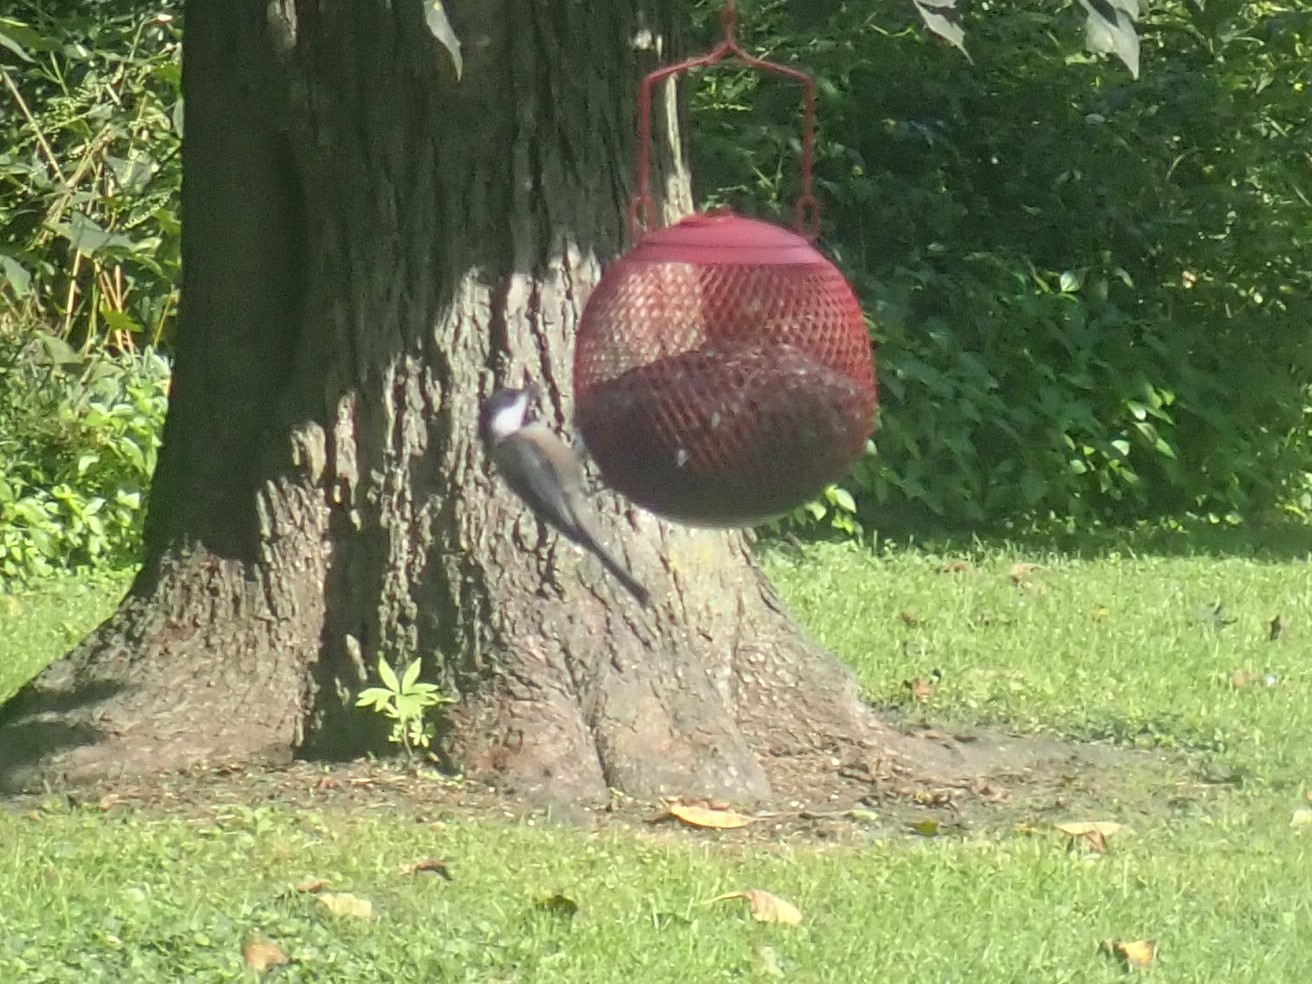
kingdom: Animalia
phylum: Chordata
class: Aves
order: Passeriformes
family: Paridae
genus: Poecile
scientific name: Poecile atricapillus
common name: Black-capped chickadee
